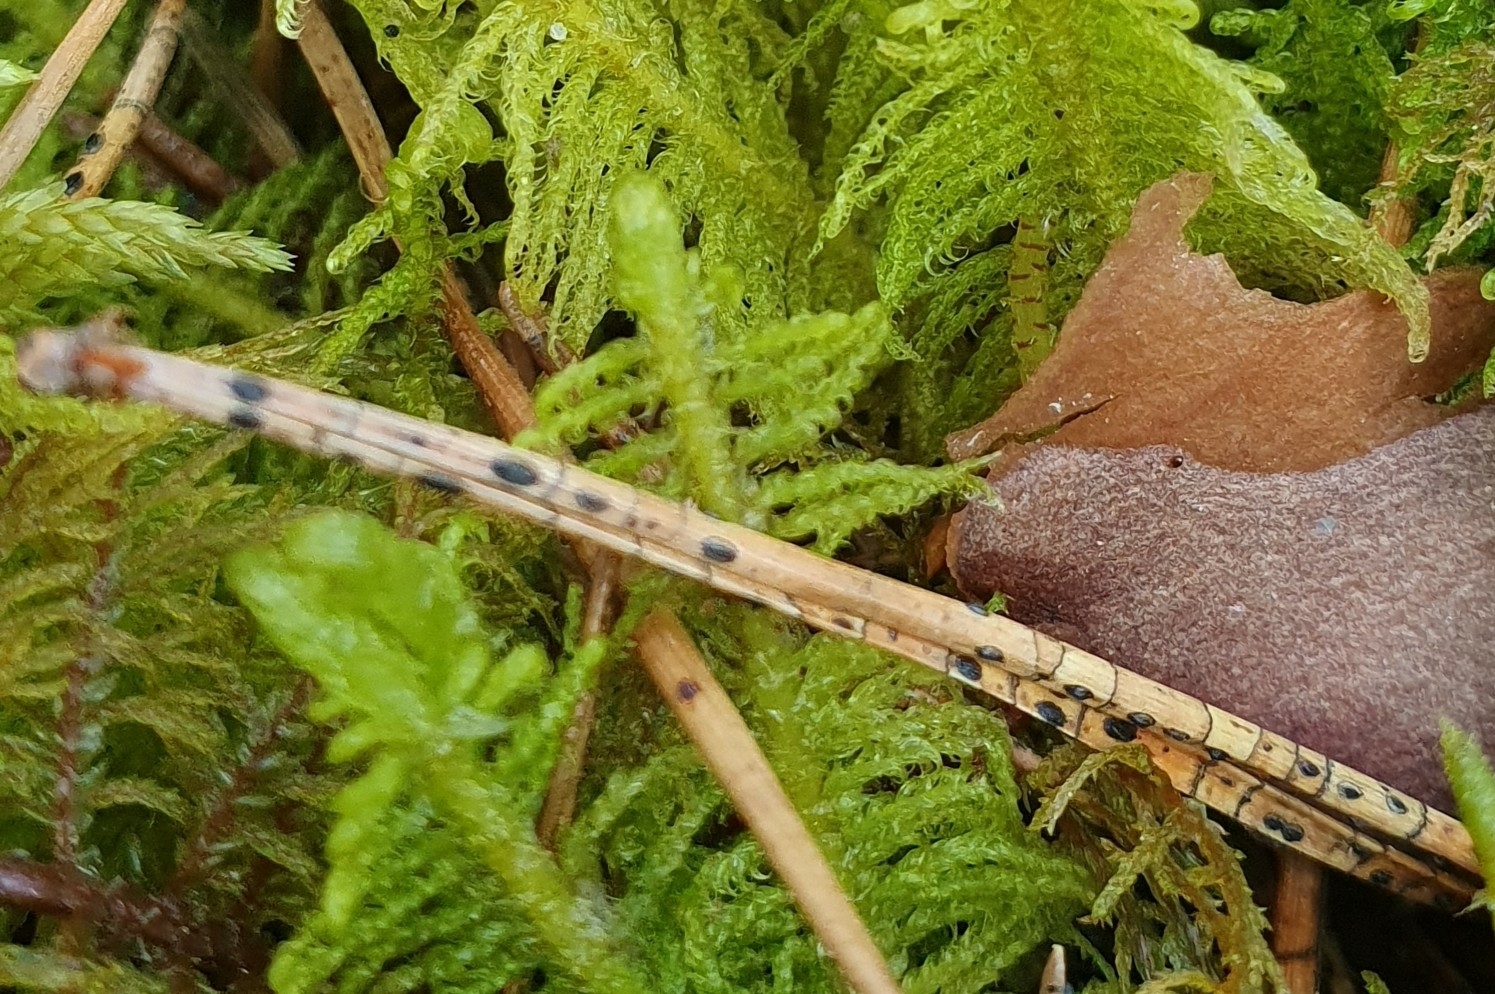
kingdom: Fungi
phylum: Ascomycota
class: Leotiomycetes
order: Rhytismatales
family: Rhytismataceae
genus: Lophodermium
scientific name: Lophodermium pinastri
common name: Pine needle split
